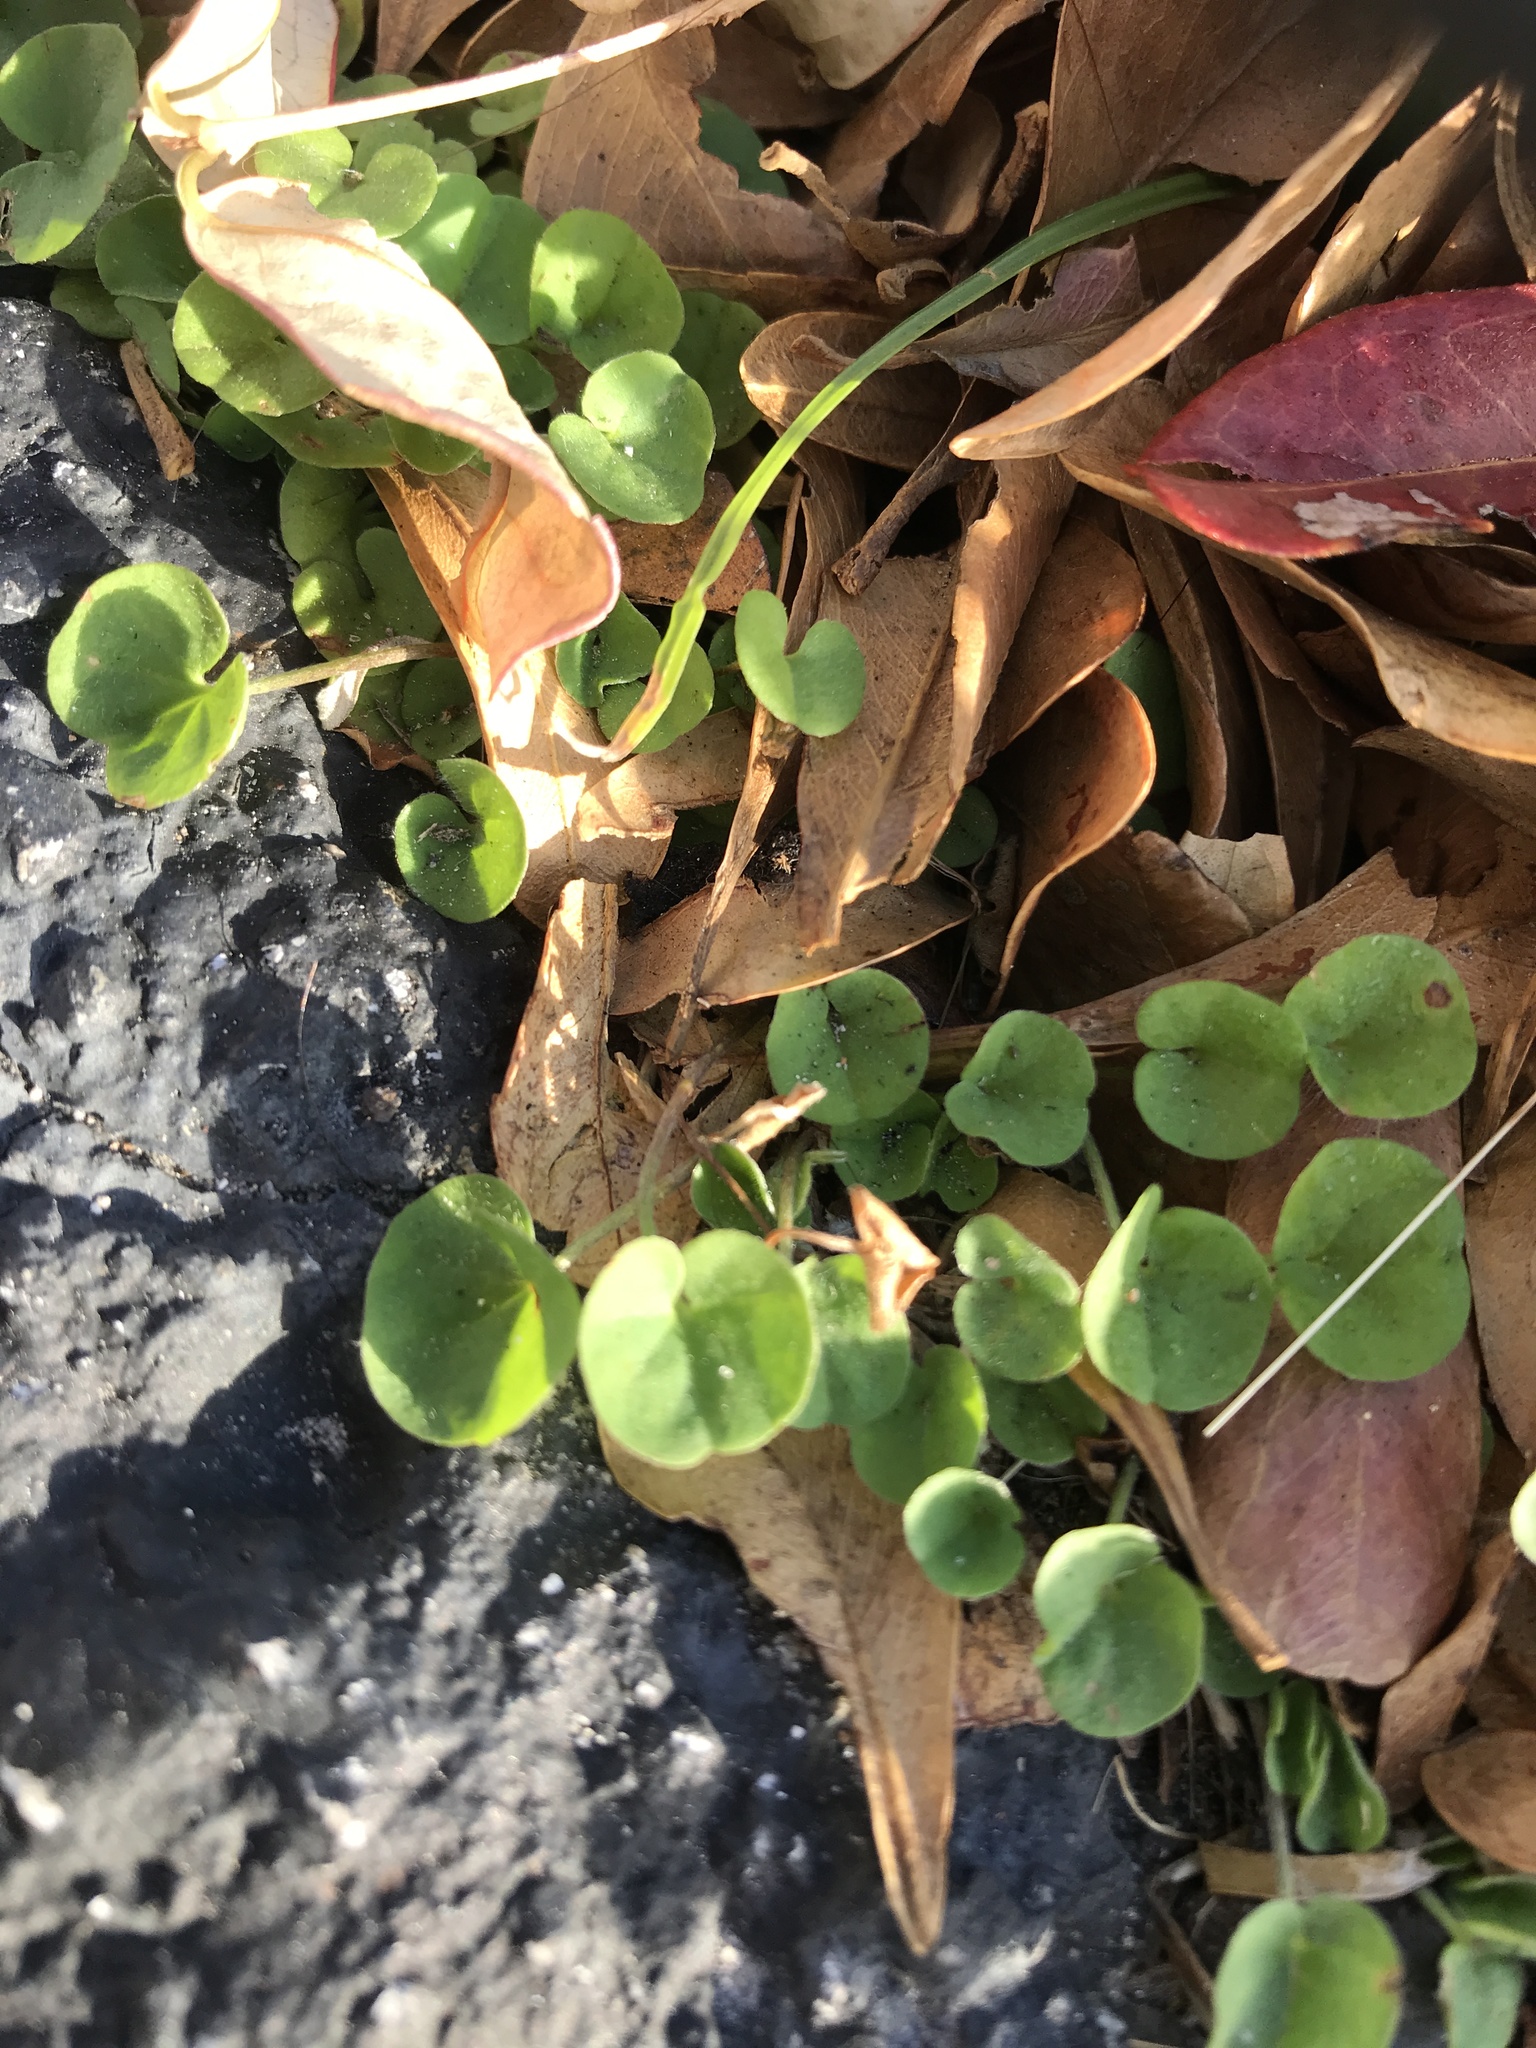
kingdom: Plantae
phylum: Tracheophyta
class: Magnoliopsida
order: Solanales
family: Convolvulaceae
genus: Dichondra
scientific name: Dichondra carolinensis
